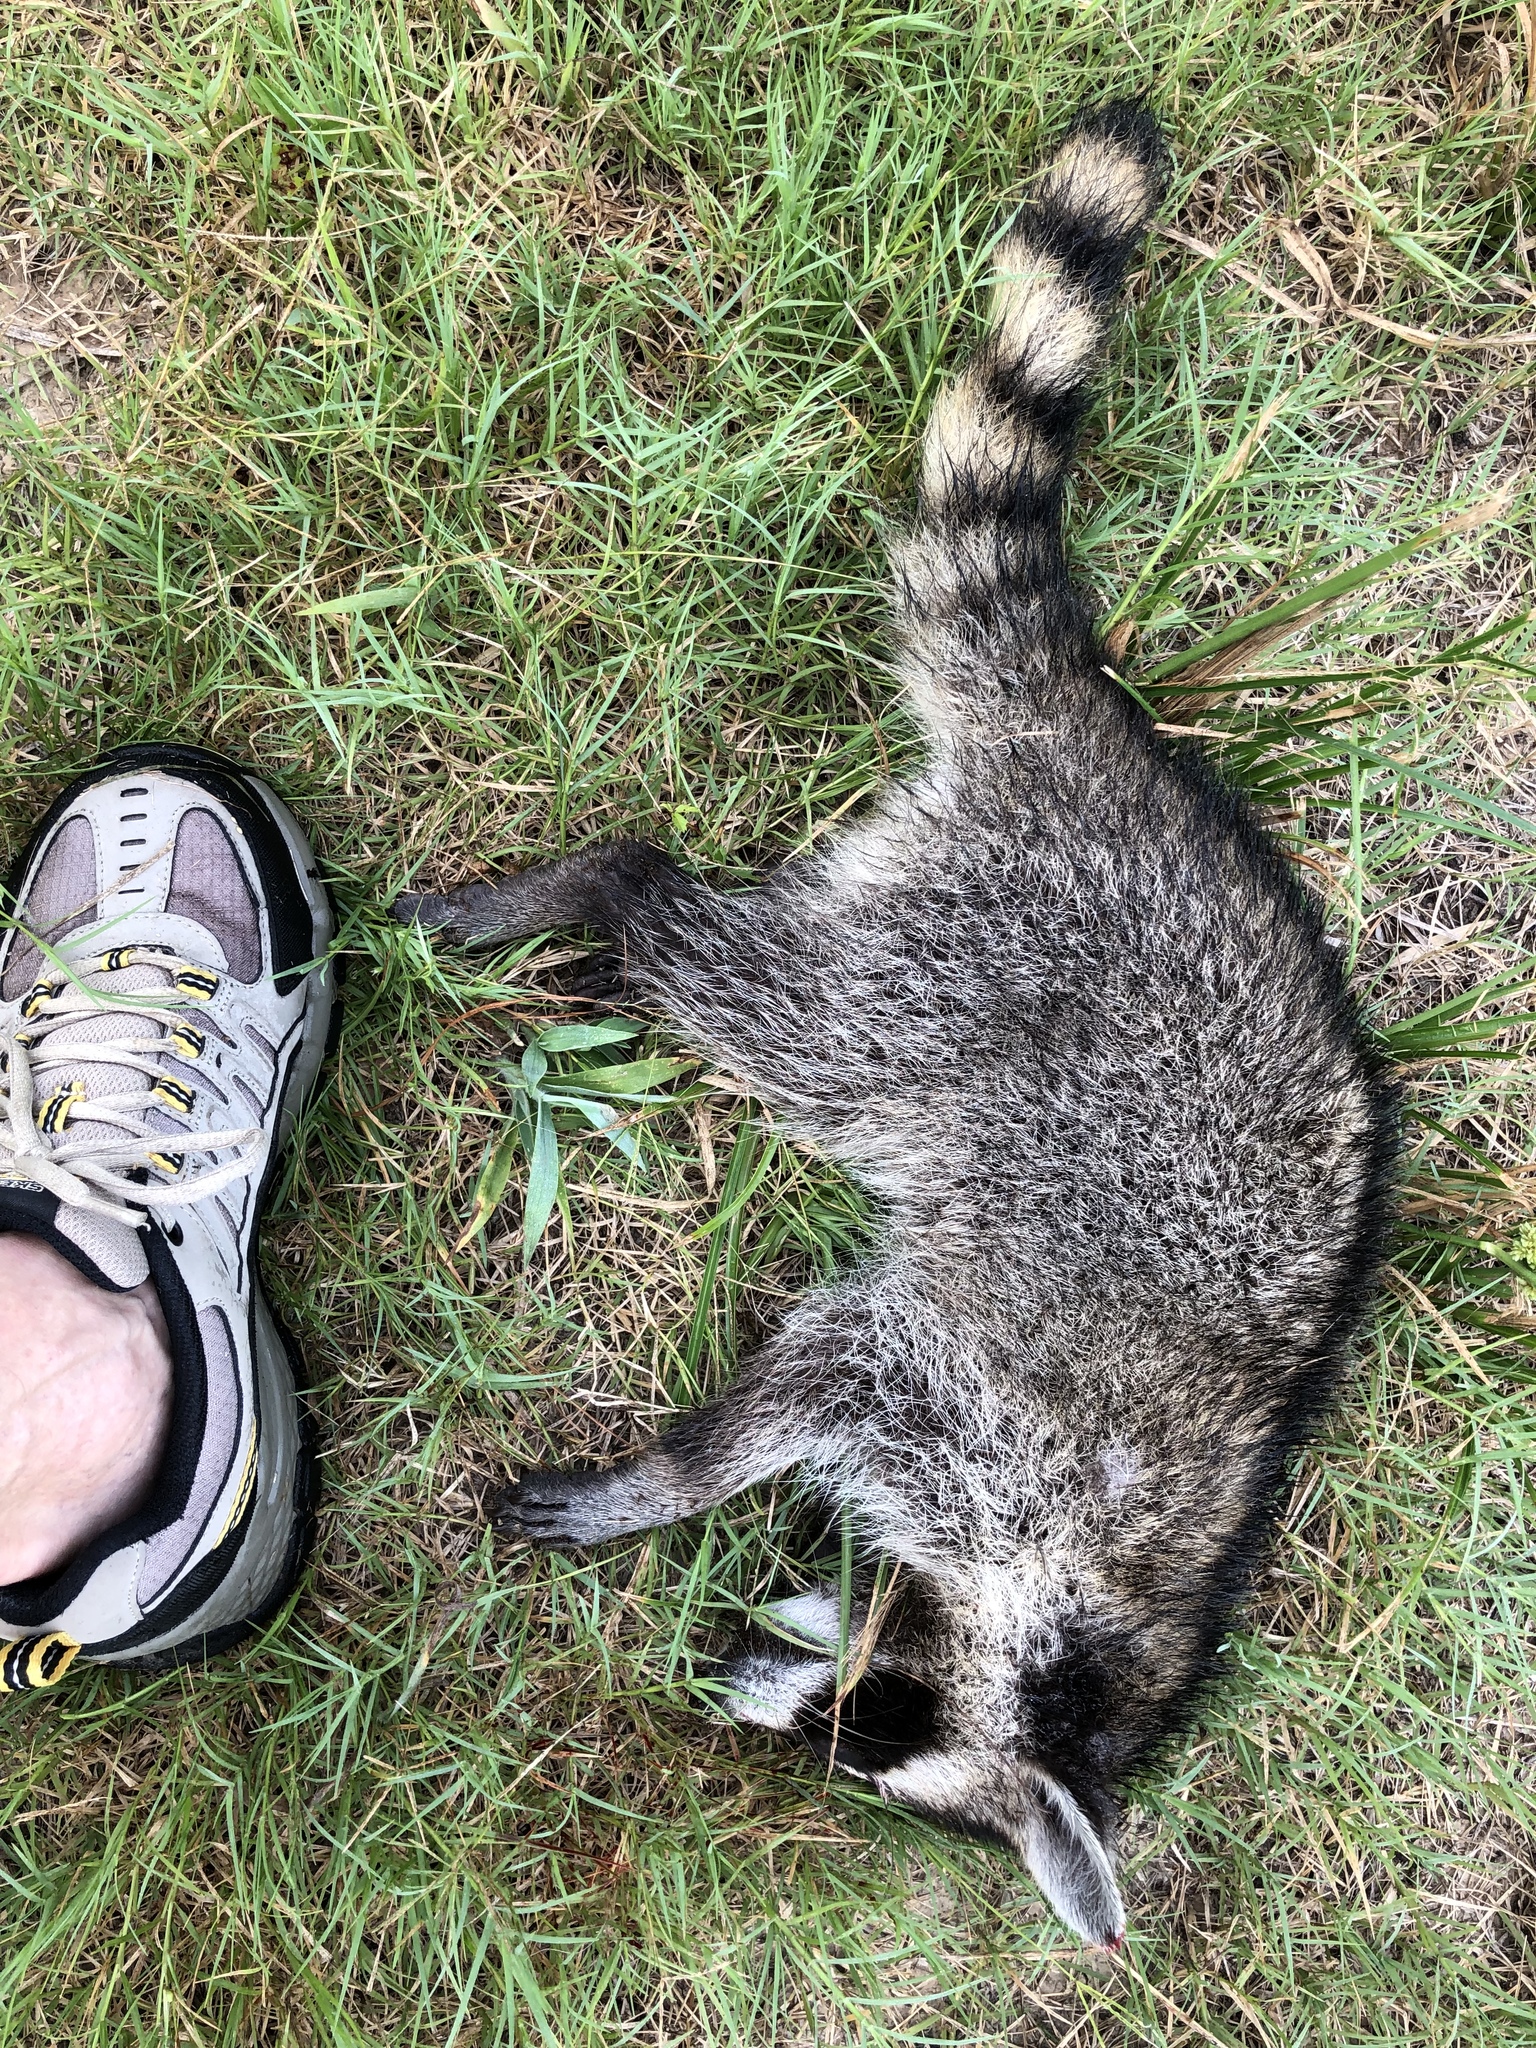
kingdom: Animalia
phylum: Chordata
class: Mammalia
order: Carnivora
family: Procyonidae
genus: Procyon
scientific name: Procyon lotor
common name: Raccoon
